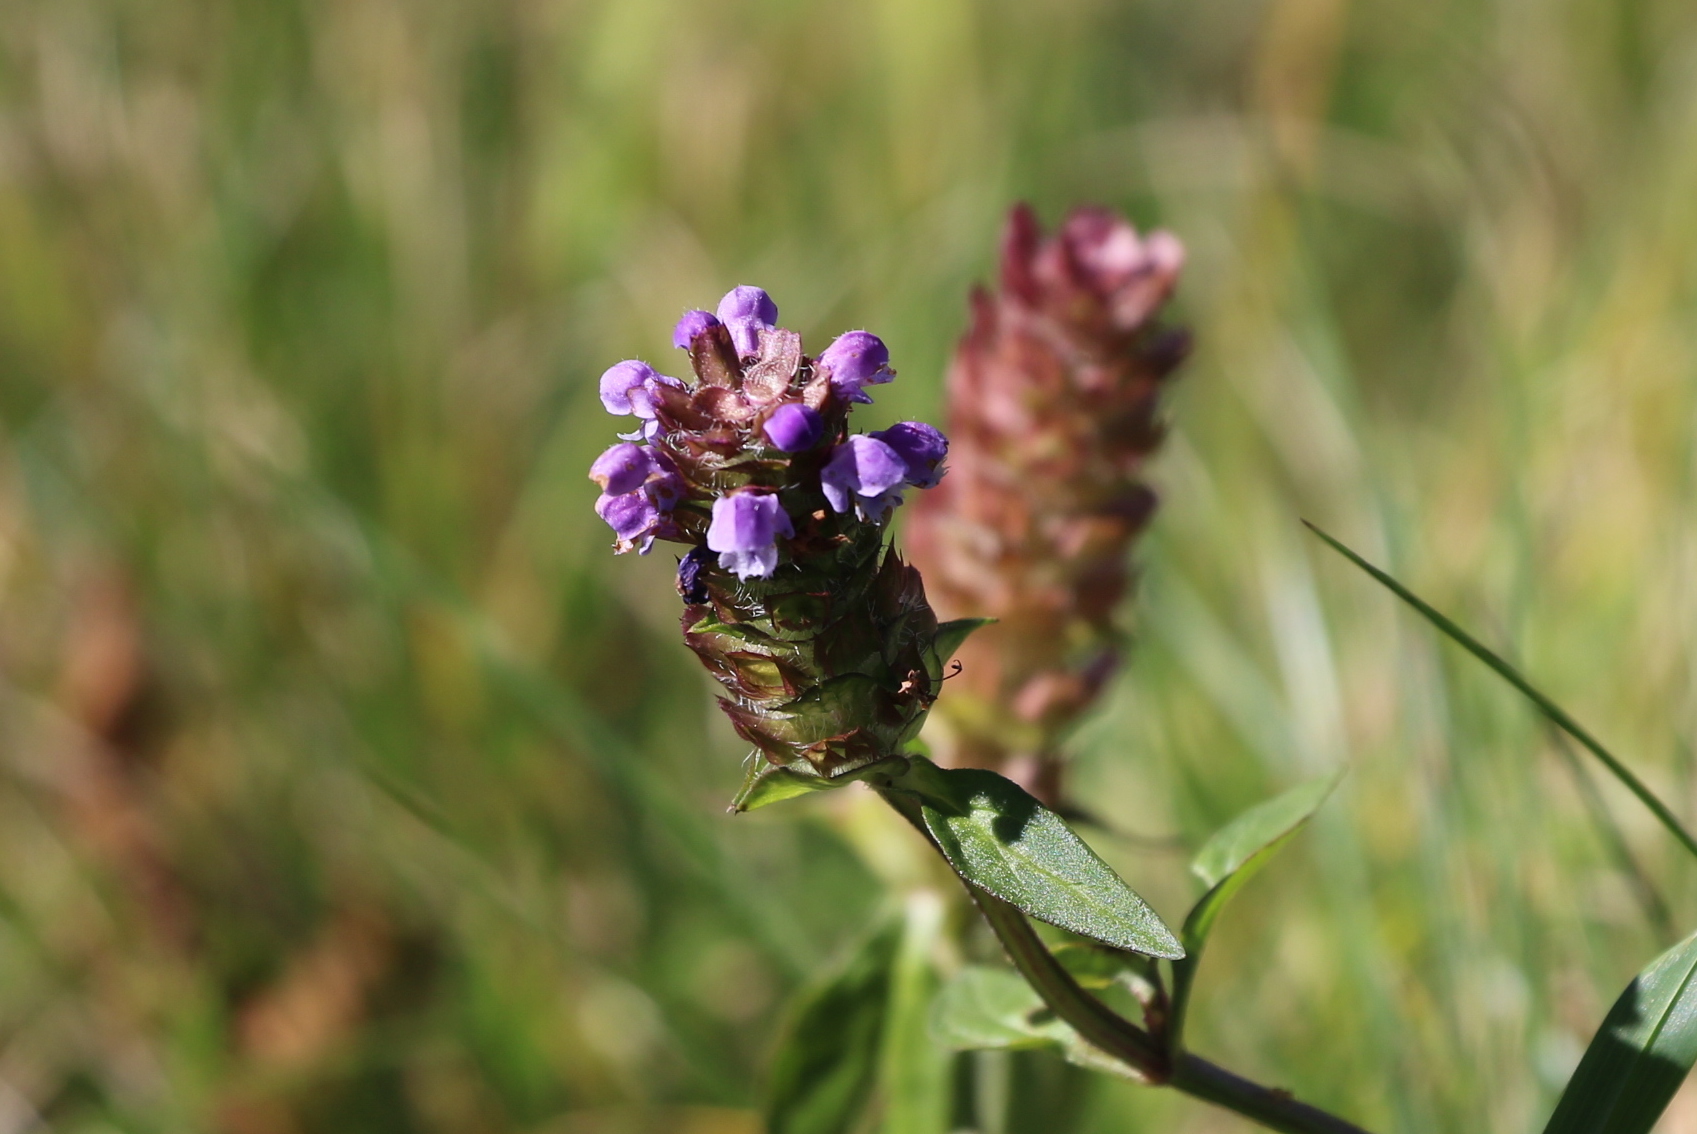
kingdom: Plantae
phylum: Tracheophyta
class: Magnoliopsida
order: Lamiales
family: Lamiaceae
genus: Prunella
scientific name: Prunella vulgaris
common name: Heal-all
